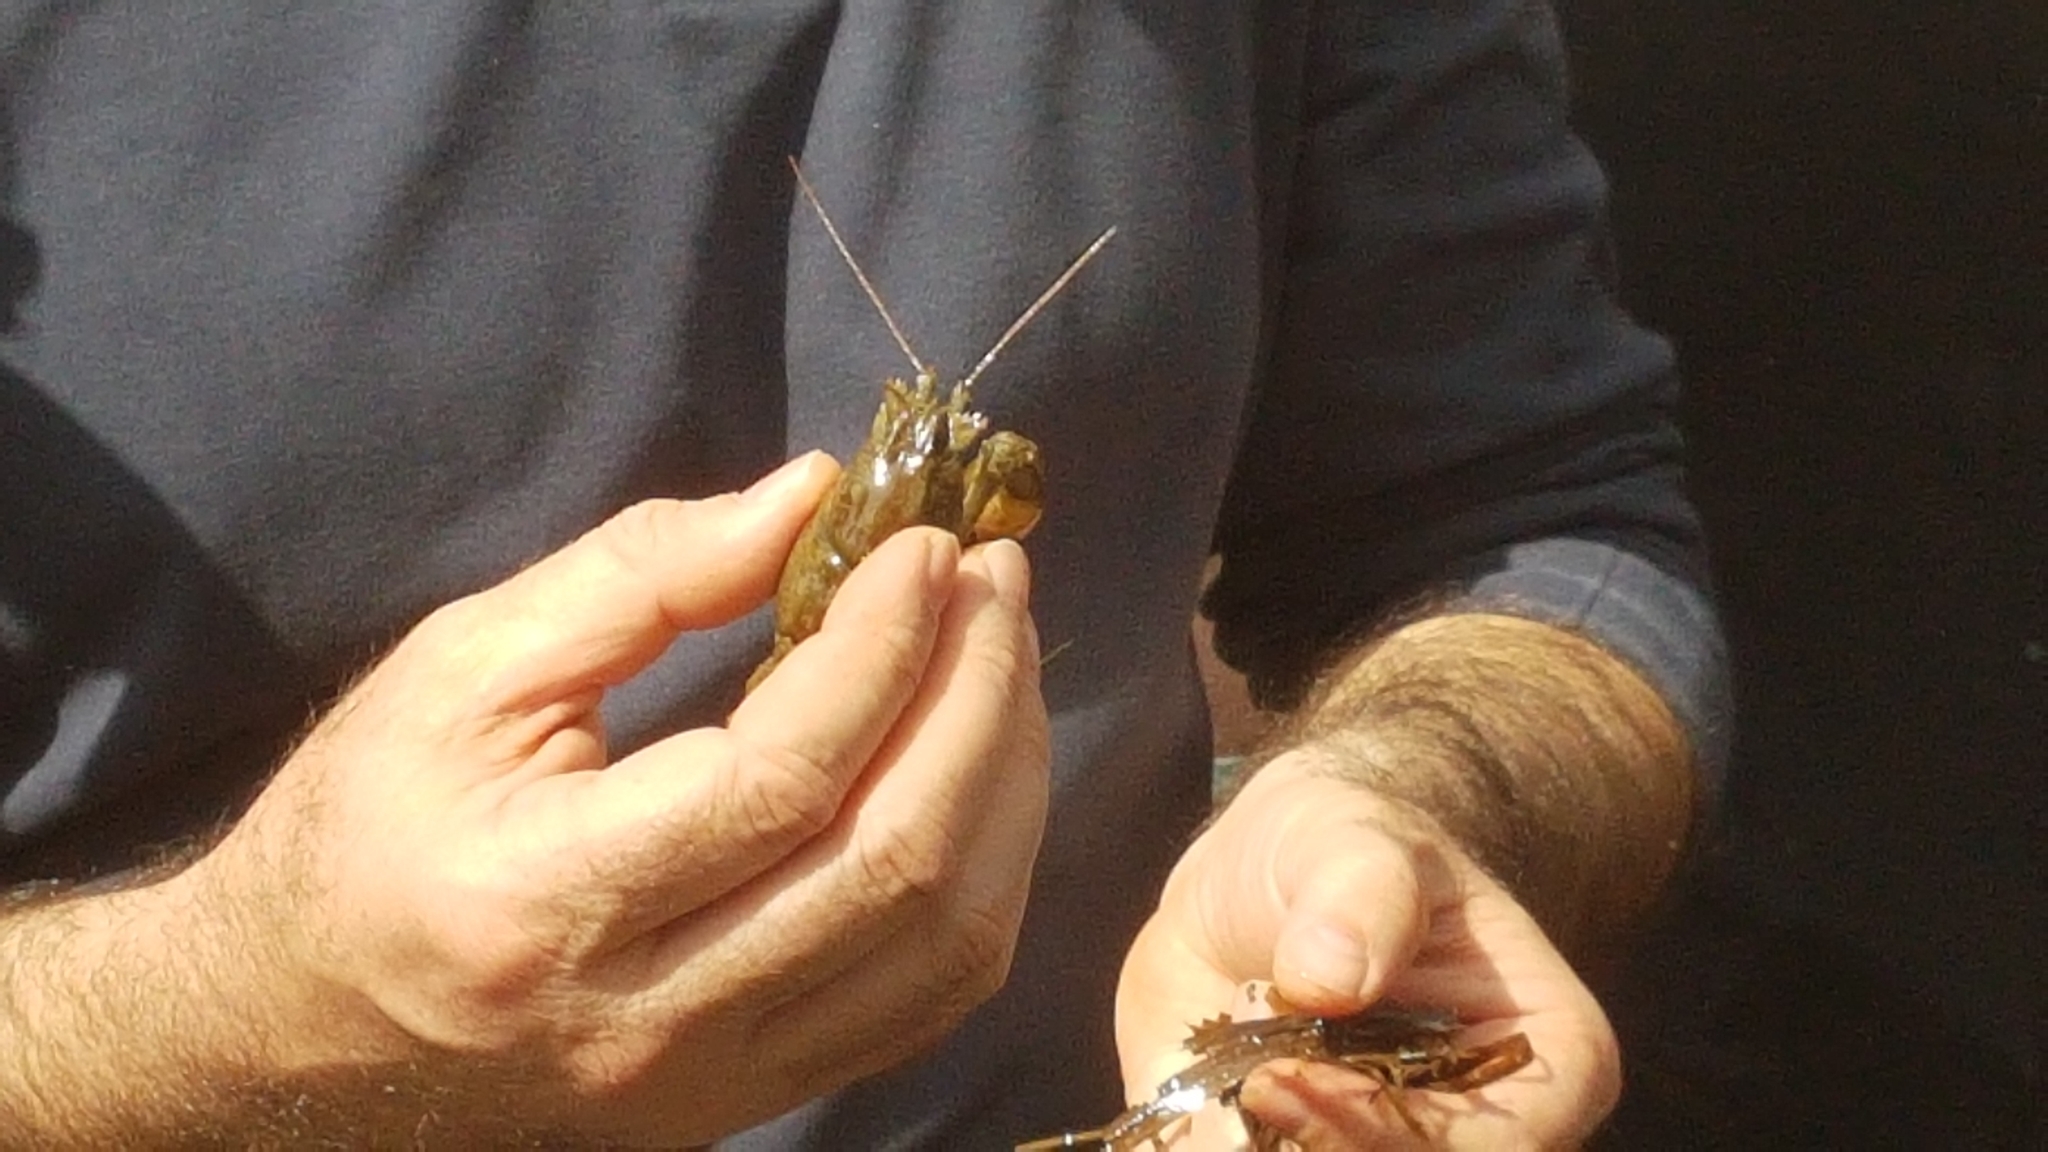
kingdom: Animalia
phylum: Arthropoda
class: Malacostraca
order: Decapoda
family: Astacidae
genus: Austropotamobius
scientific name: Austropotamobius pallipes
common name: White-clawed crayfish
